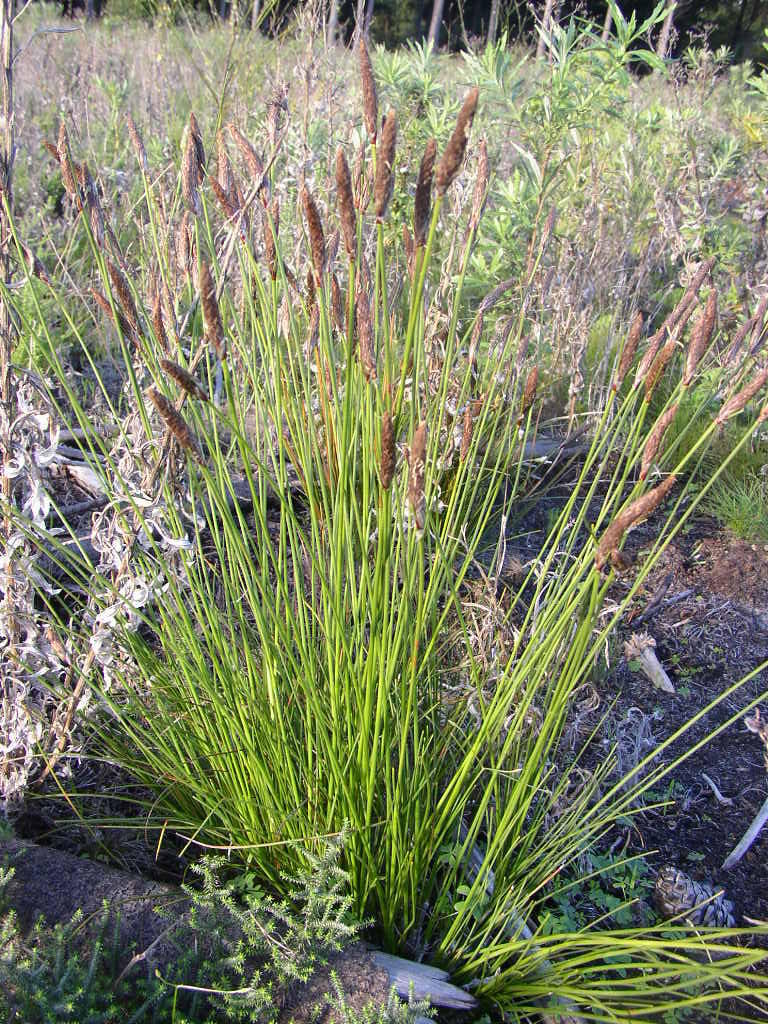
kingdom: Plantae
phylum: Tracheophyta
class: Liliopsida
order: Poales
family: Cyperaceae
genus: Ficinia
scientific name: Ficinia deusta
